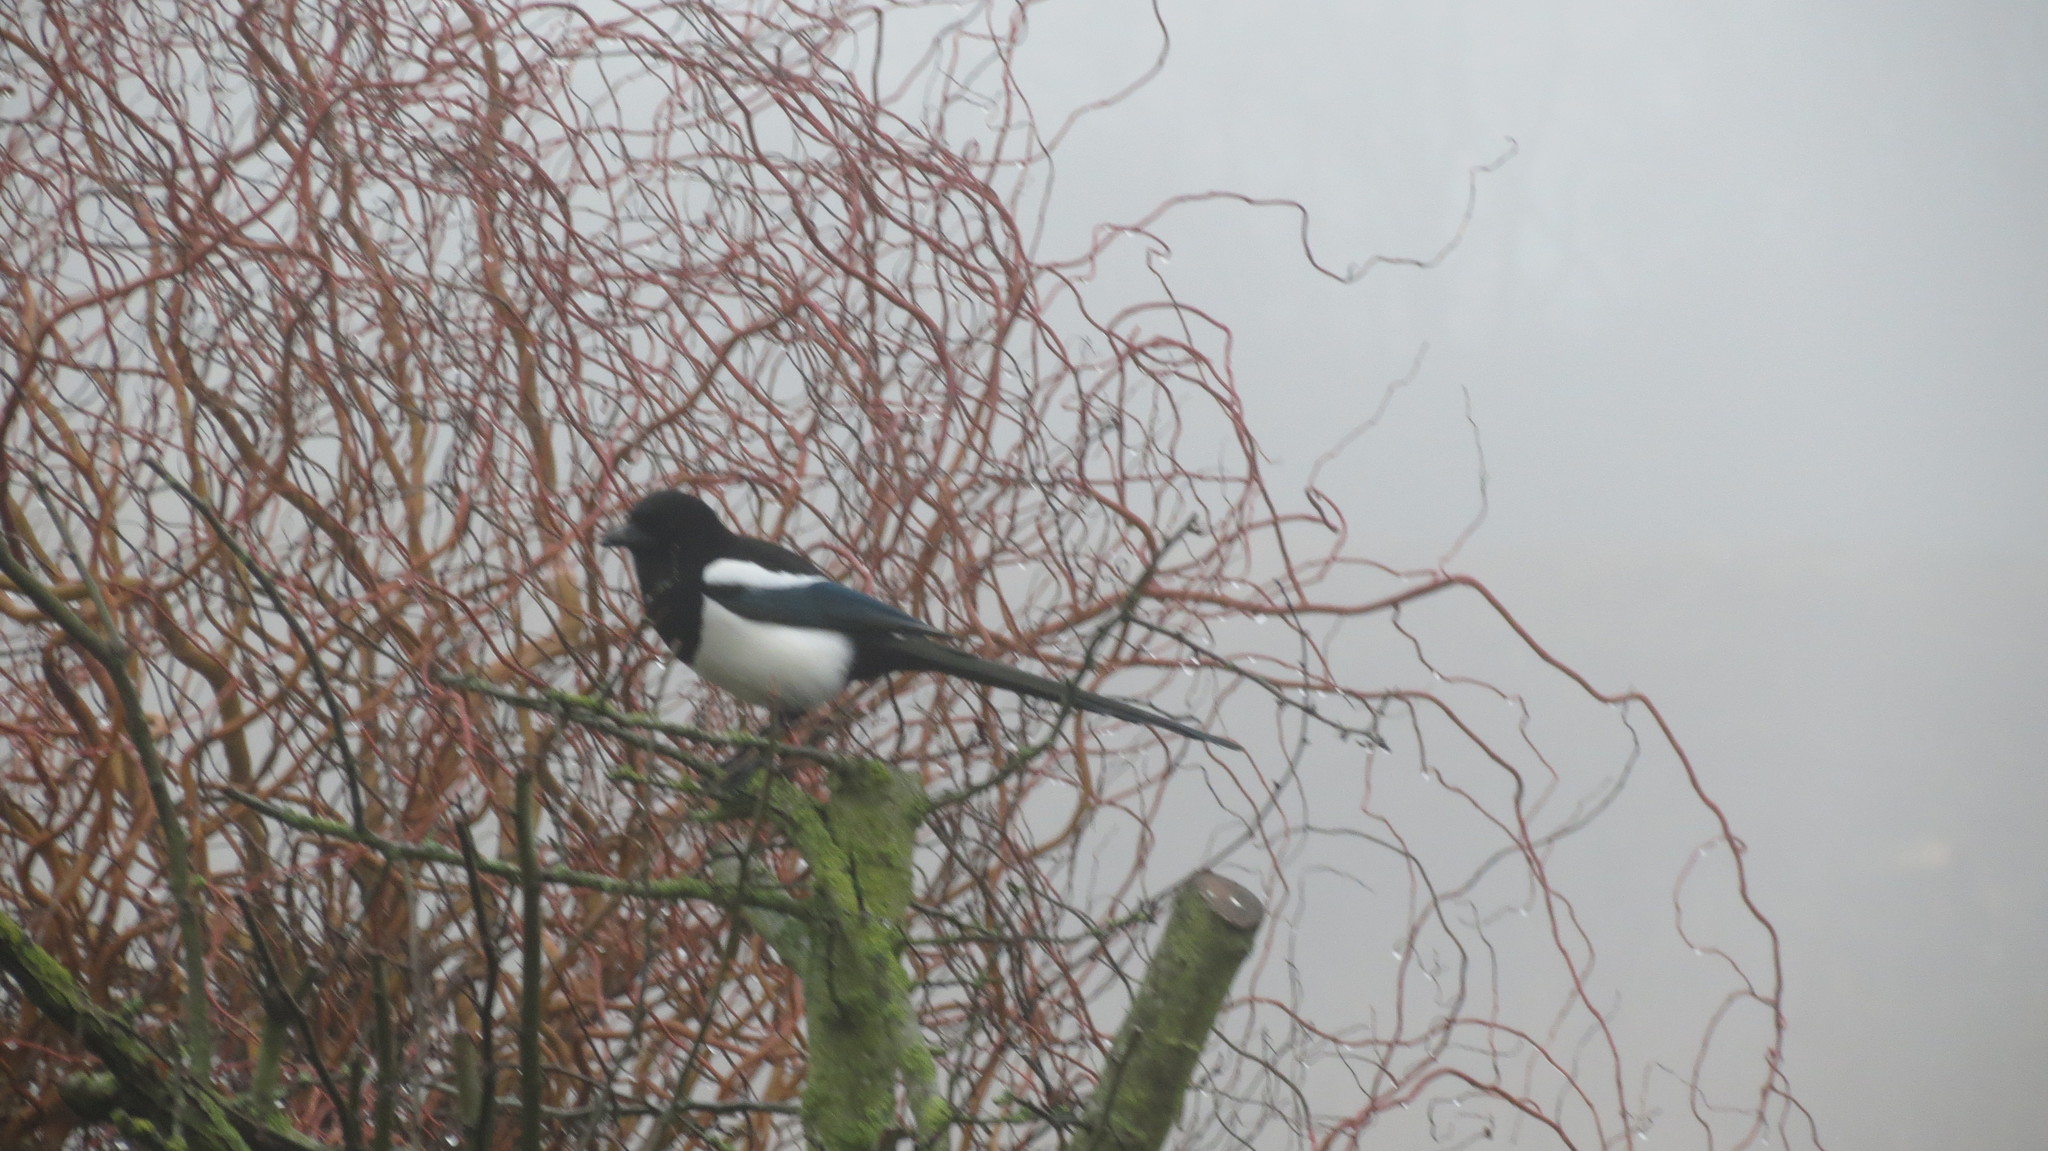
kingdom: Animalia
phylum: Chordata
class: Aves
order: Passeriformes
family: Corvidae
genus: Pica
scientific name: Pica pica
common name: Eurasian magpie
